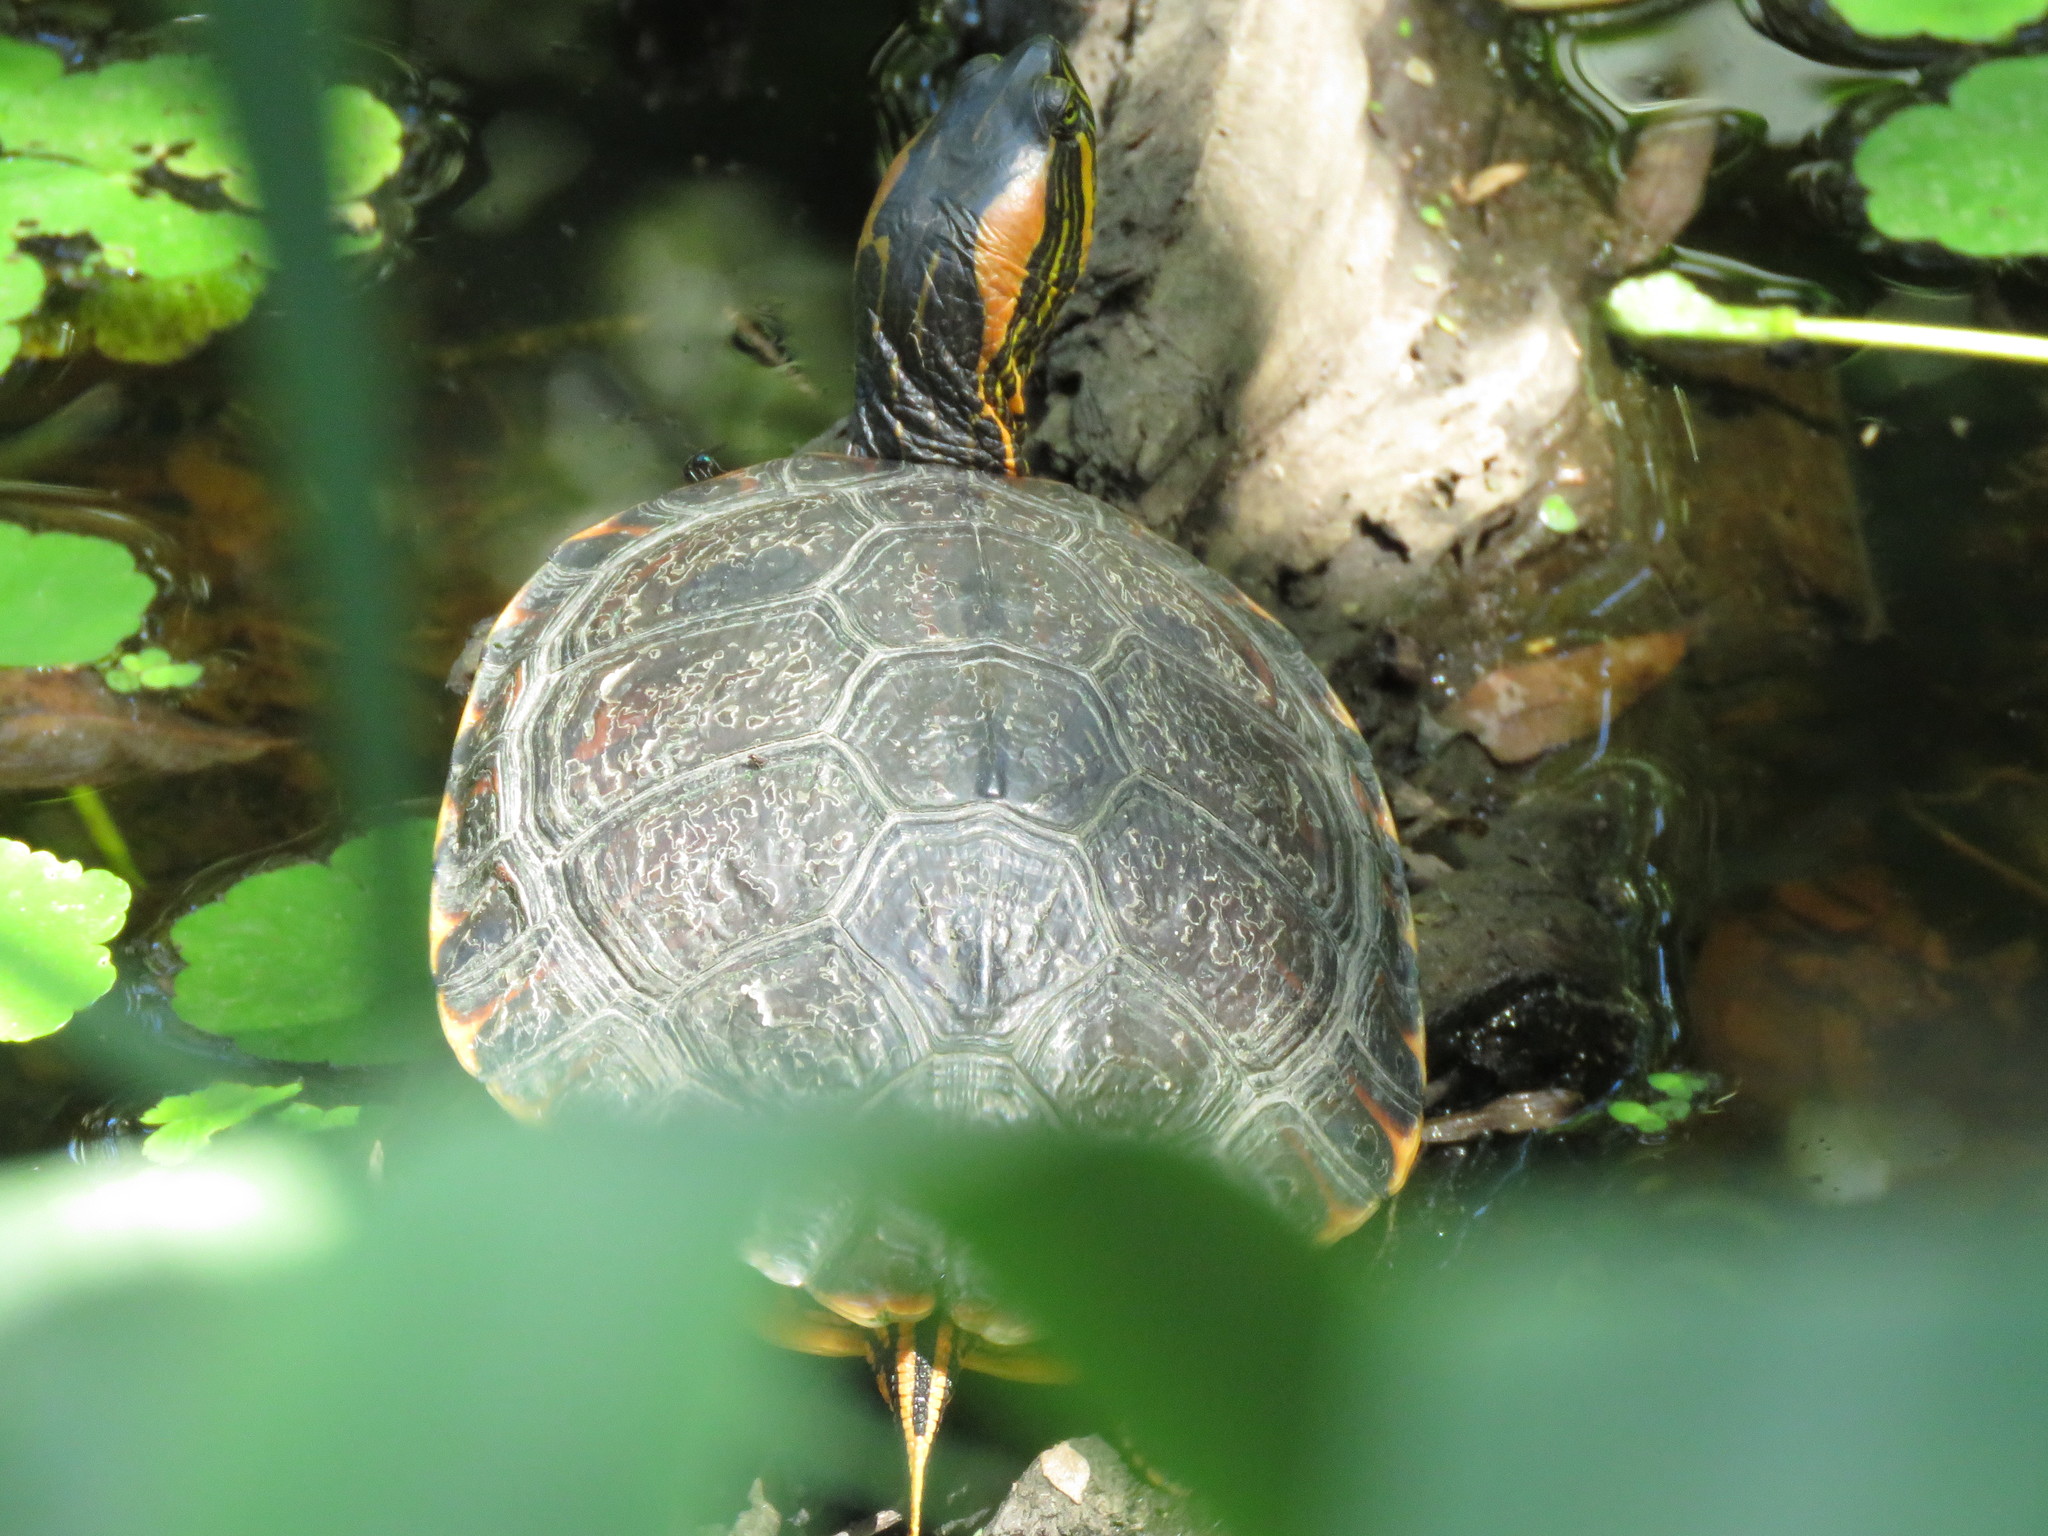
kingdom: Animalia
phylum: Chordata
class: Testudines
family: Emydidae
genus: Trachemys
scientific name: Trachemys dorbigni
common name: Black-bellied slider
